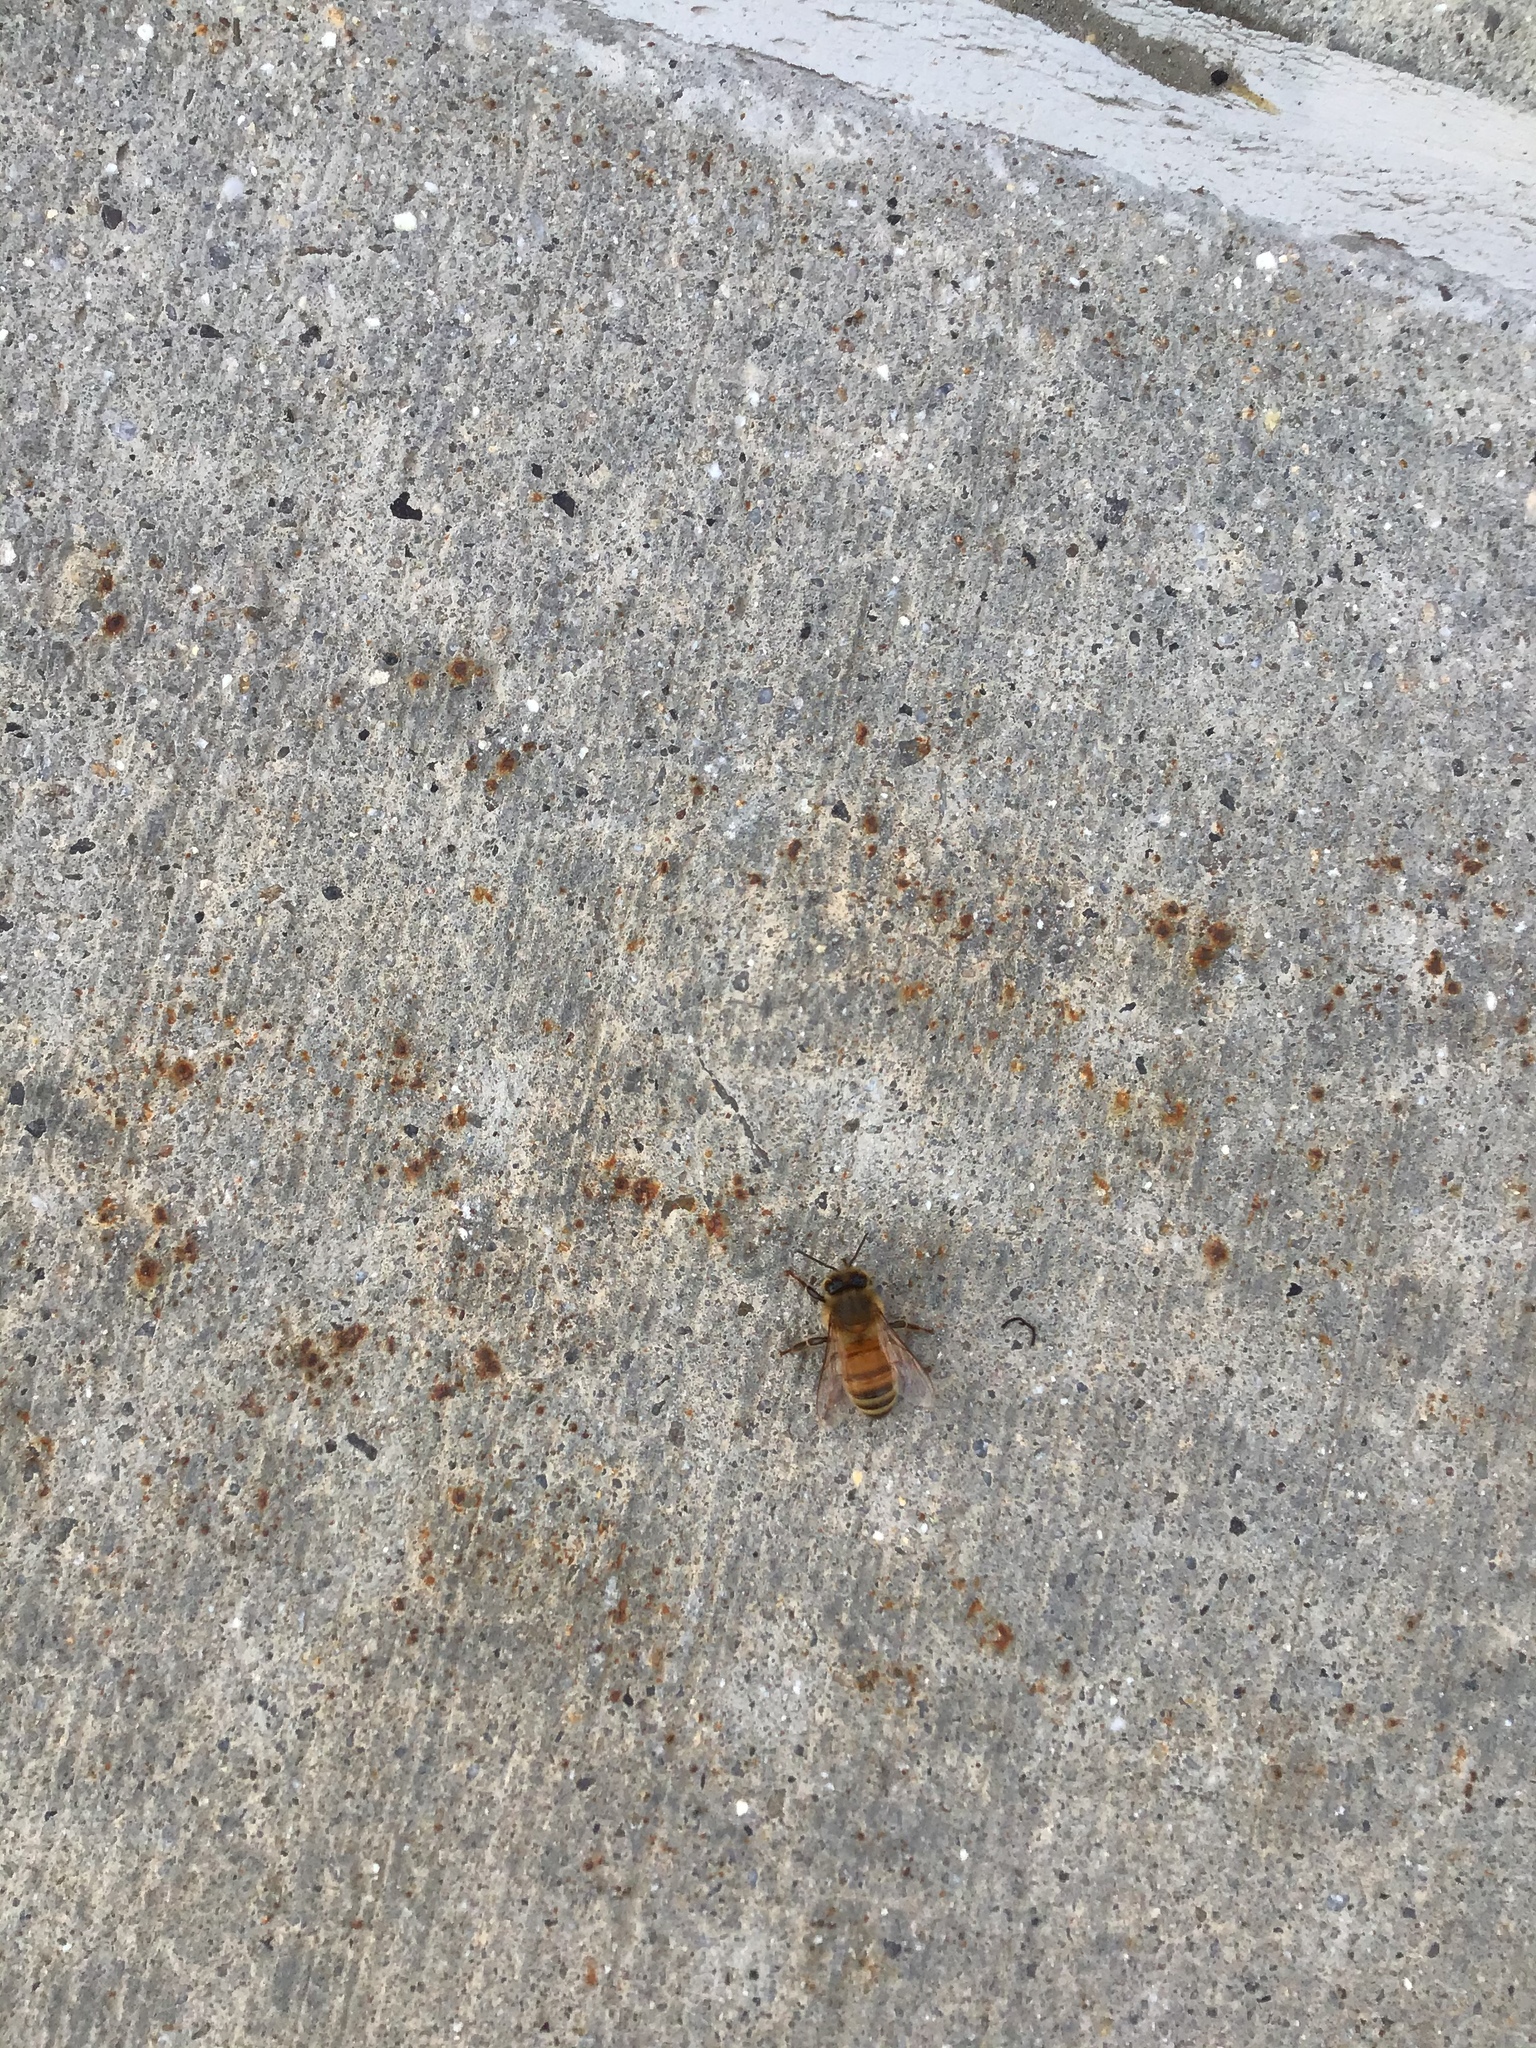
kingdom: Animalia
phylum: Arthropoda
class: Insecta
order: Hymenoptera
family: Apidae
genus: Apis
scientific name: Apis mellifera
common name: Honey bee
